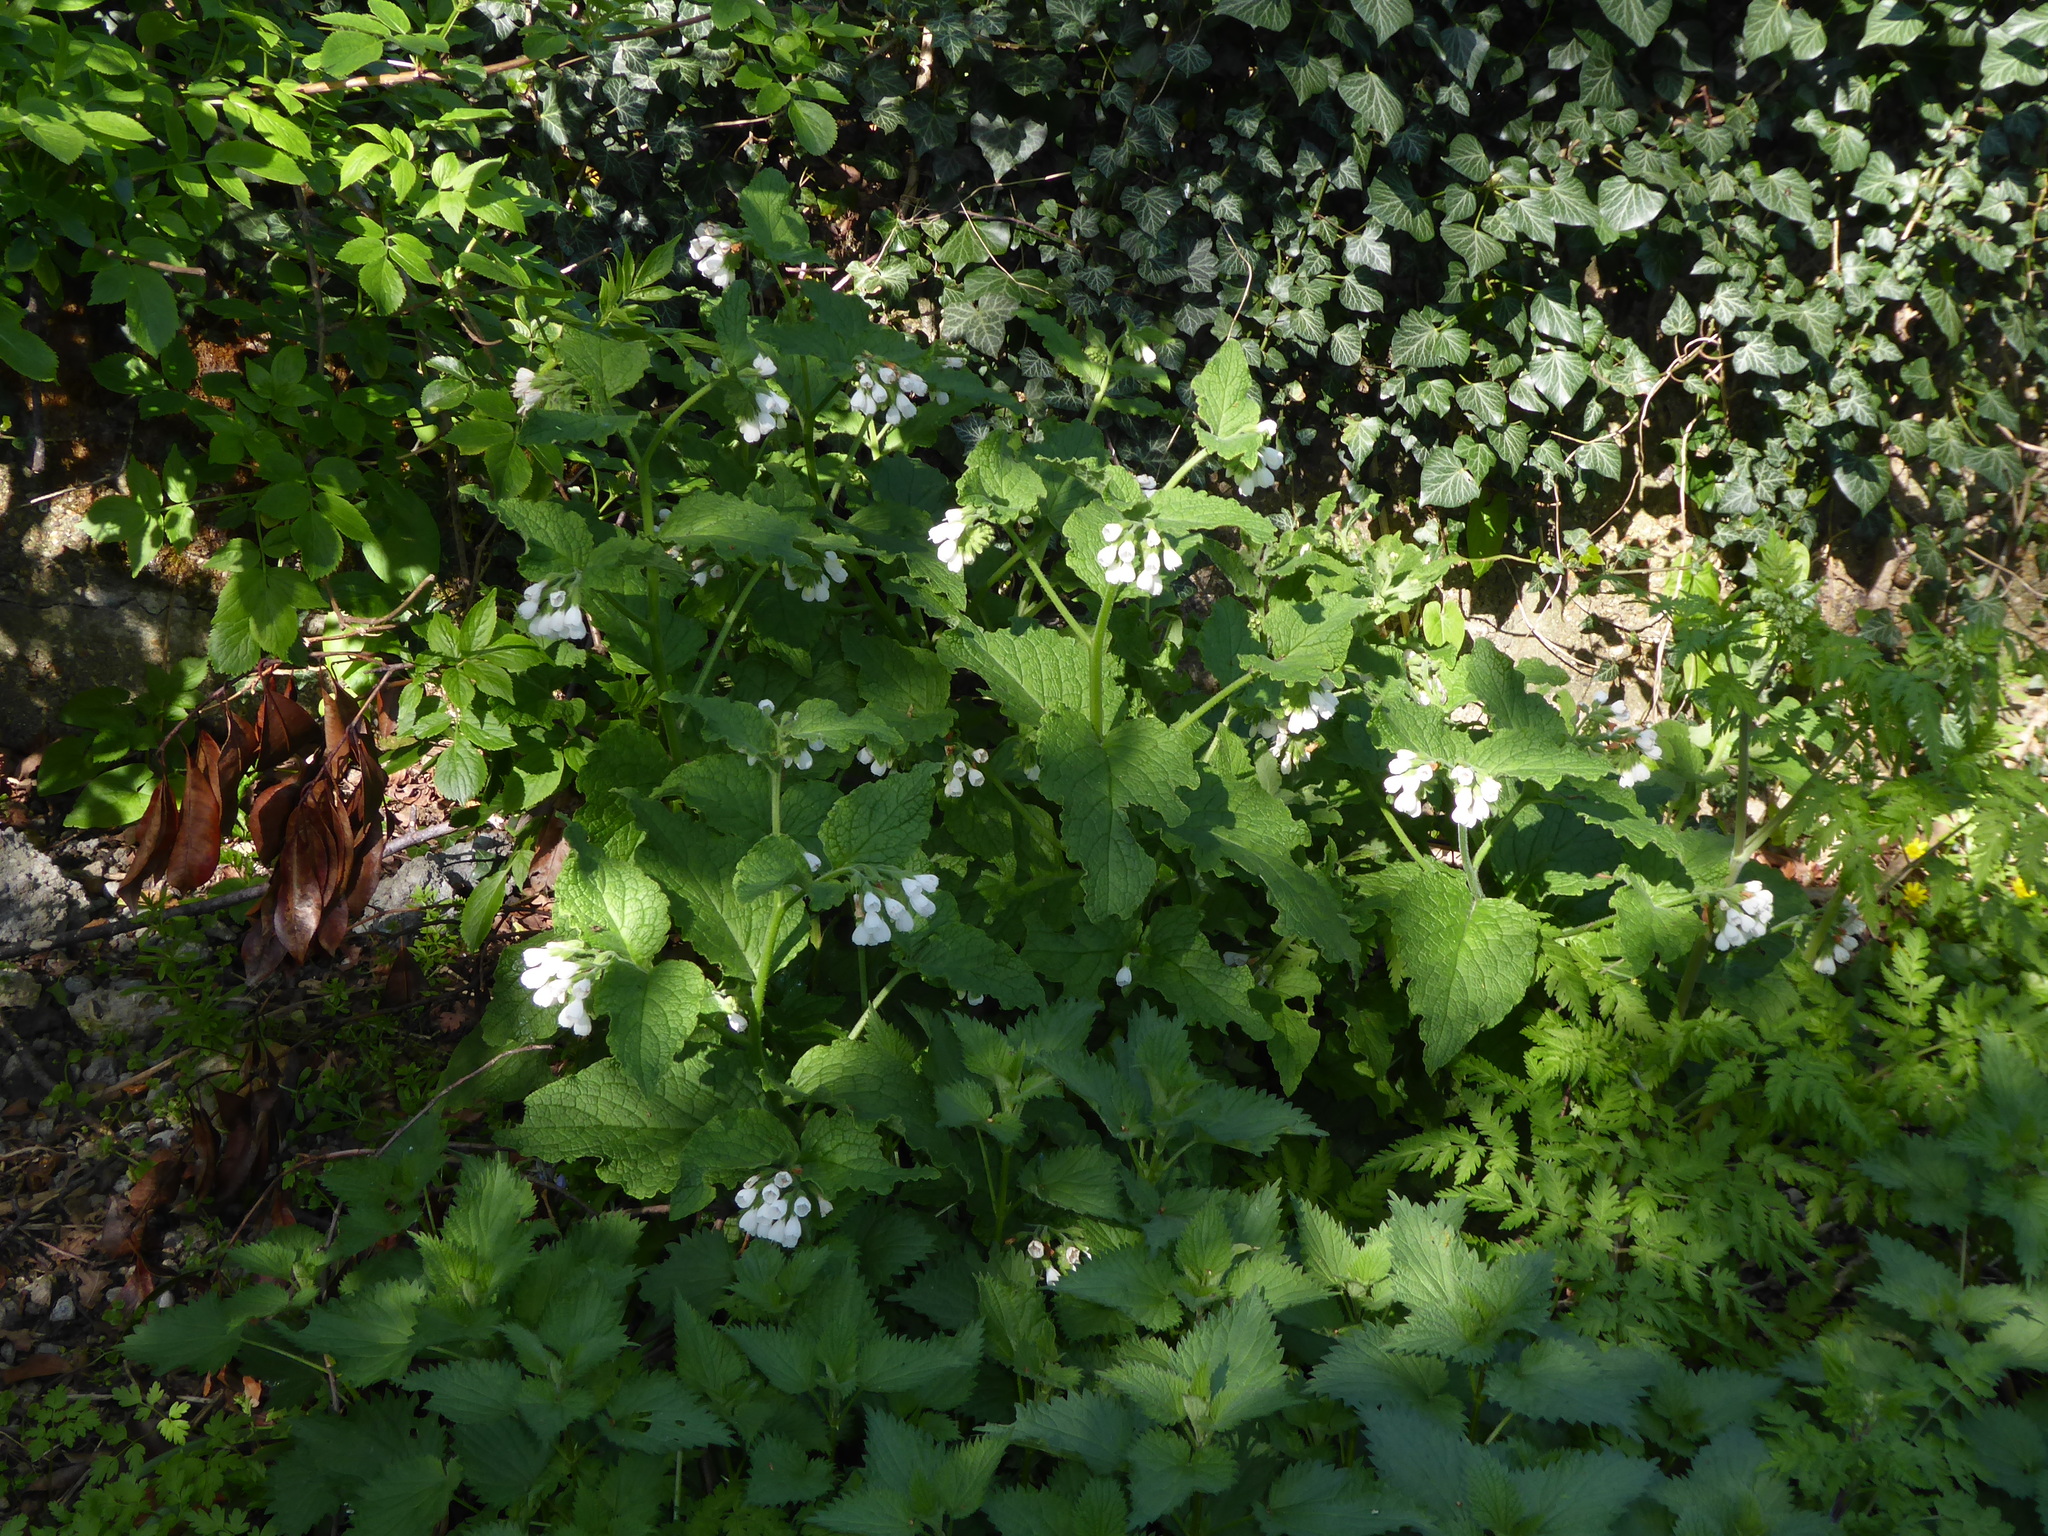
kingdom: Plantae
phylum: Tracheophyta
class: Magnoliopsida
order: Boraginales
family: Boraginaceae
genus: Symphytum
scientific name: Symphytum orientale
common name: White comfrey
